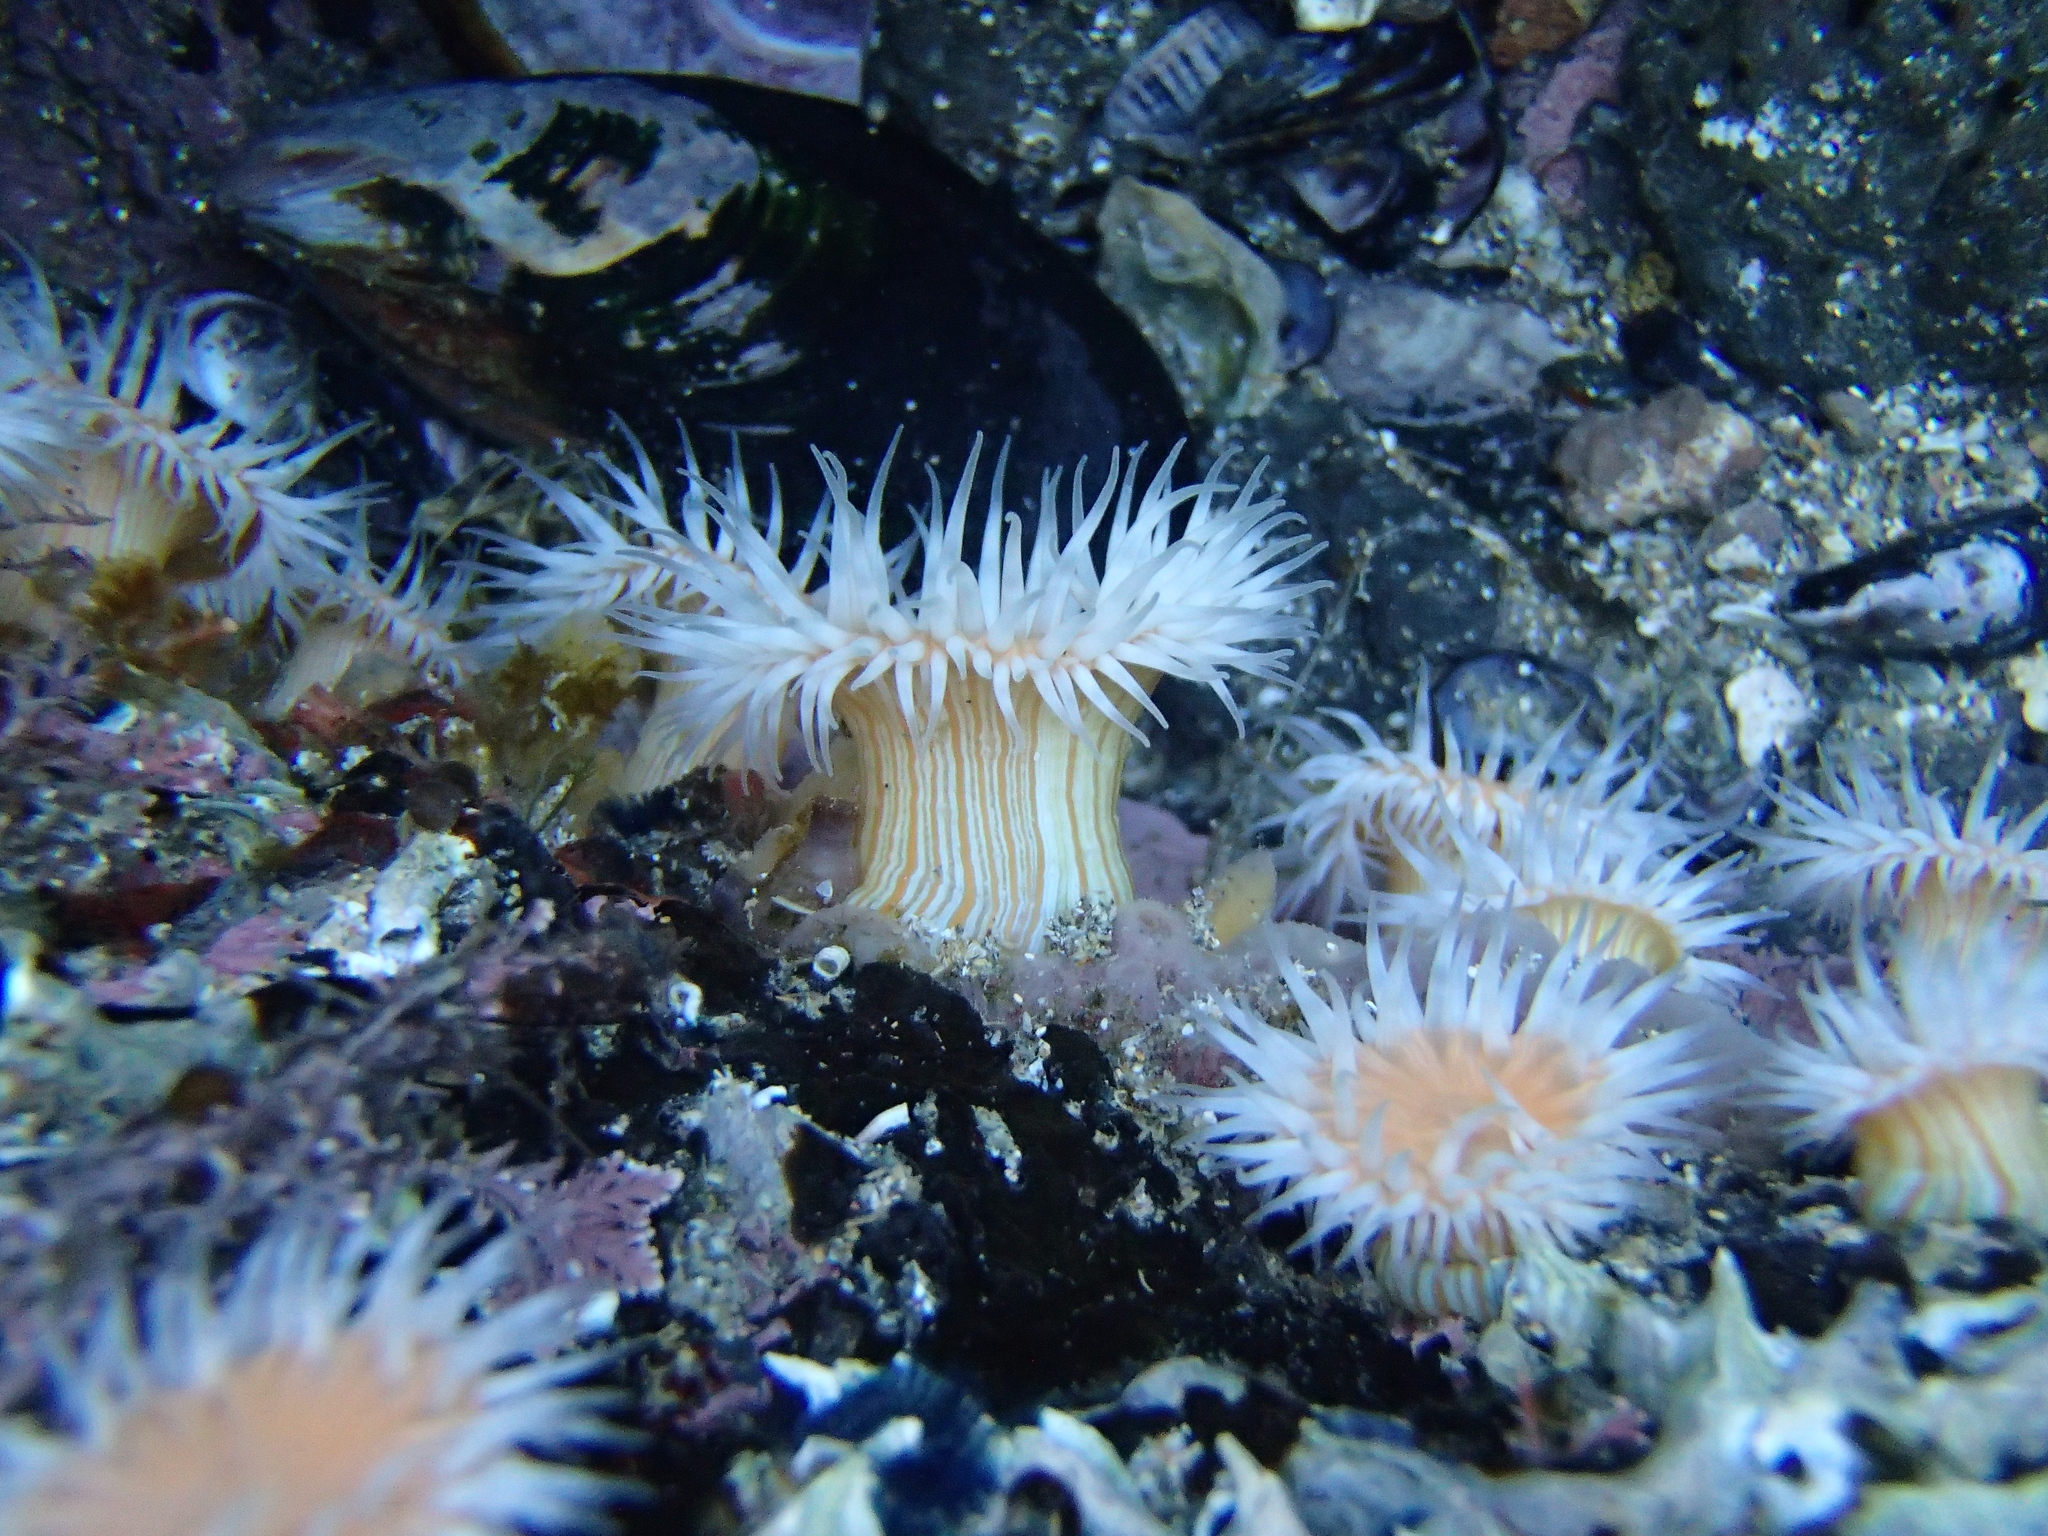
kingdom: Animalia
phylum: Cnidaria
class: Anthozoa
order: Actiniaria
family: Sagartiidae
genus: Anthothoe
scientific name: Anthothoe albocincta
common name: Orange striped anemone
